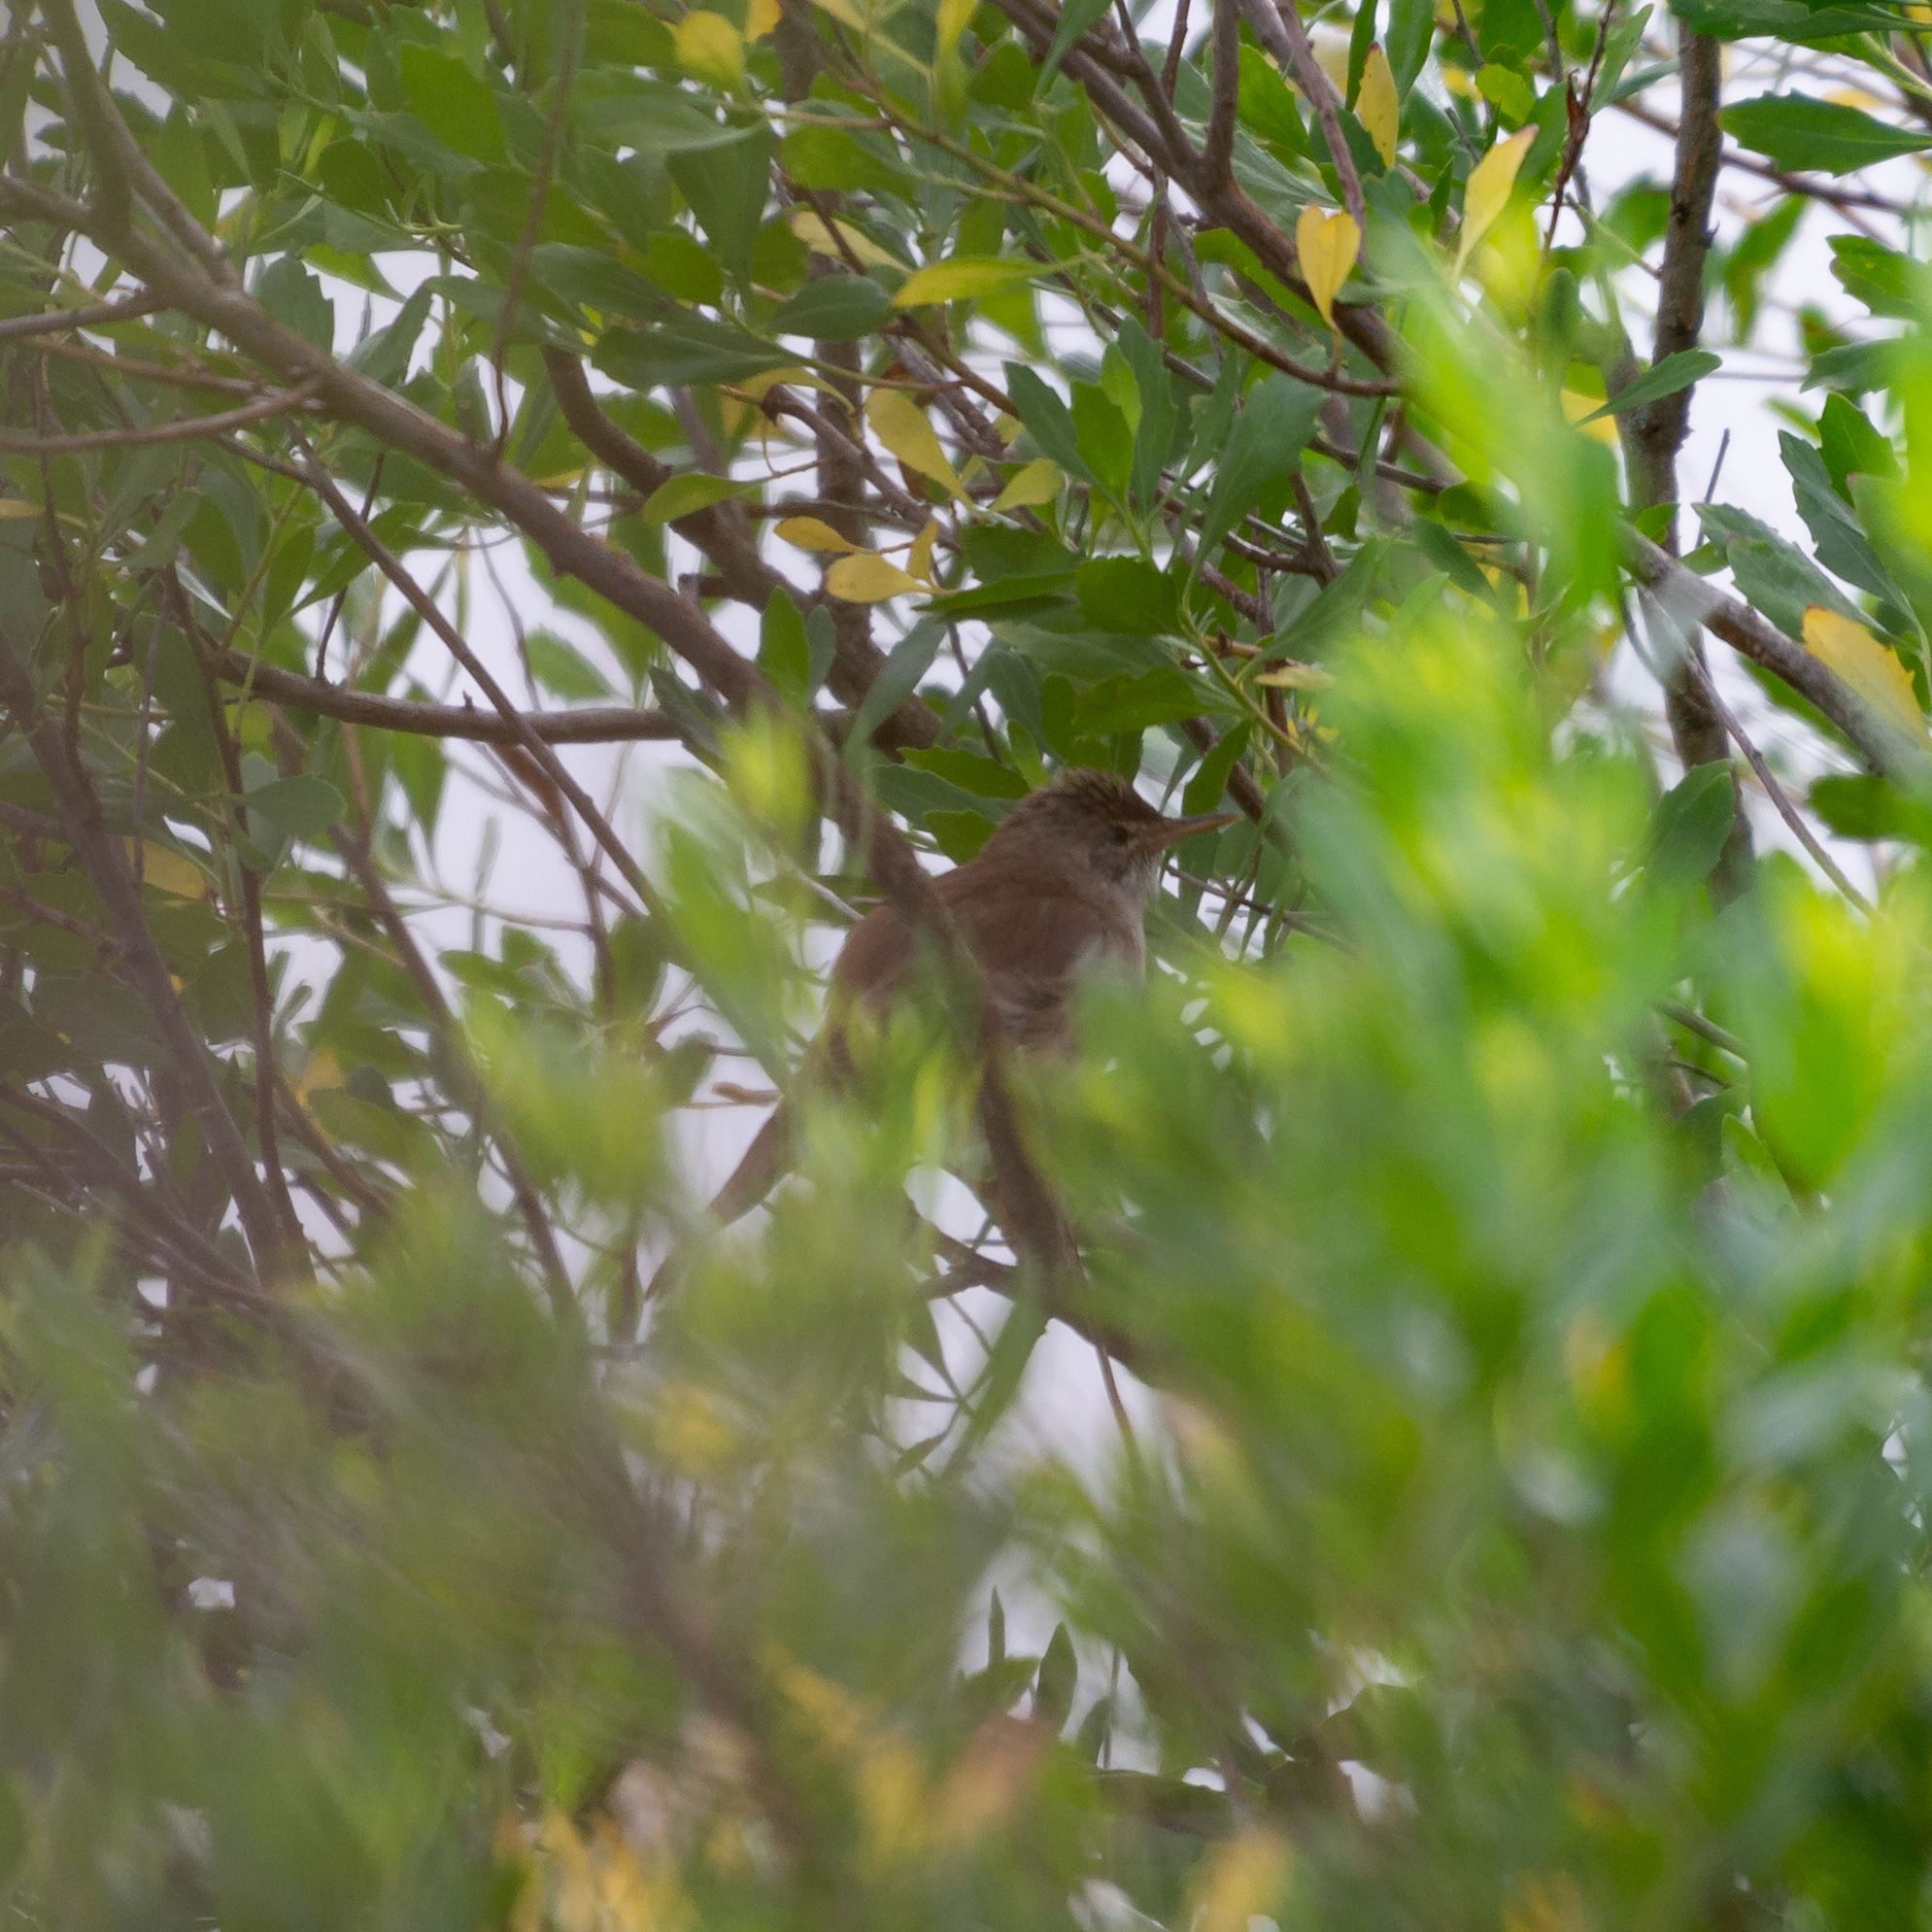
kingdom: Animalia
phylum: Chordata
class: Aves
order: Passeriformes
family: Acrocephalidae
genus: Acrocephalus
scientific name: Acrocephalus scirpaceus
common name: Eurasian reed warbler
